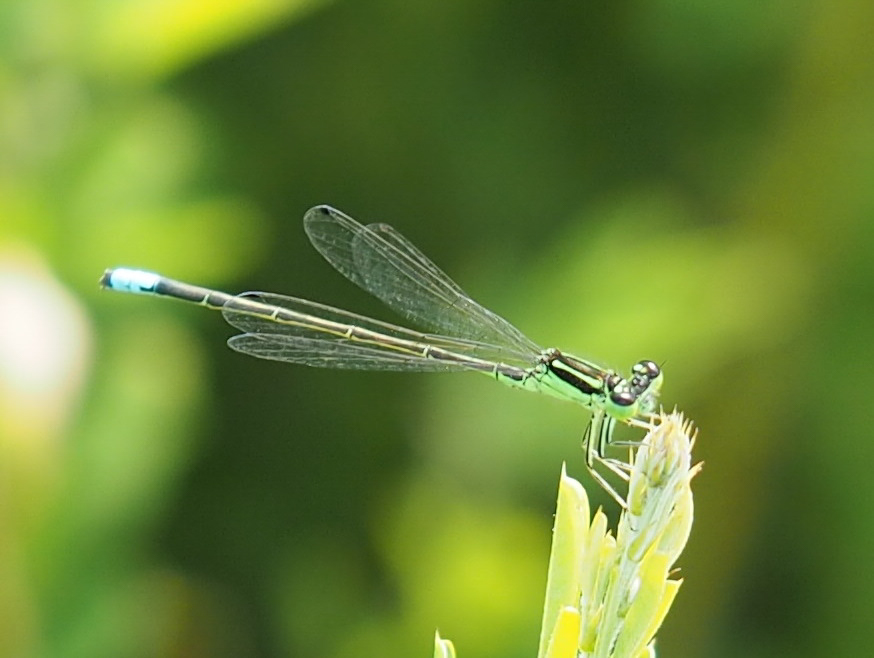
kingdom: Animalia
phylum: Arthropoda
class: Insecta
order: Odonata
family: Coenagrionidae
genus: Ischnura
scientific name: Ischnura verticalis
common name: Eastern forktail
